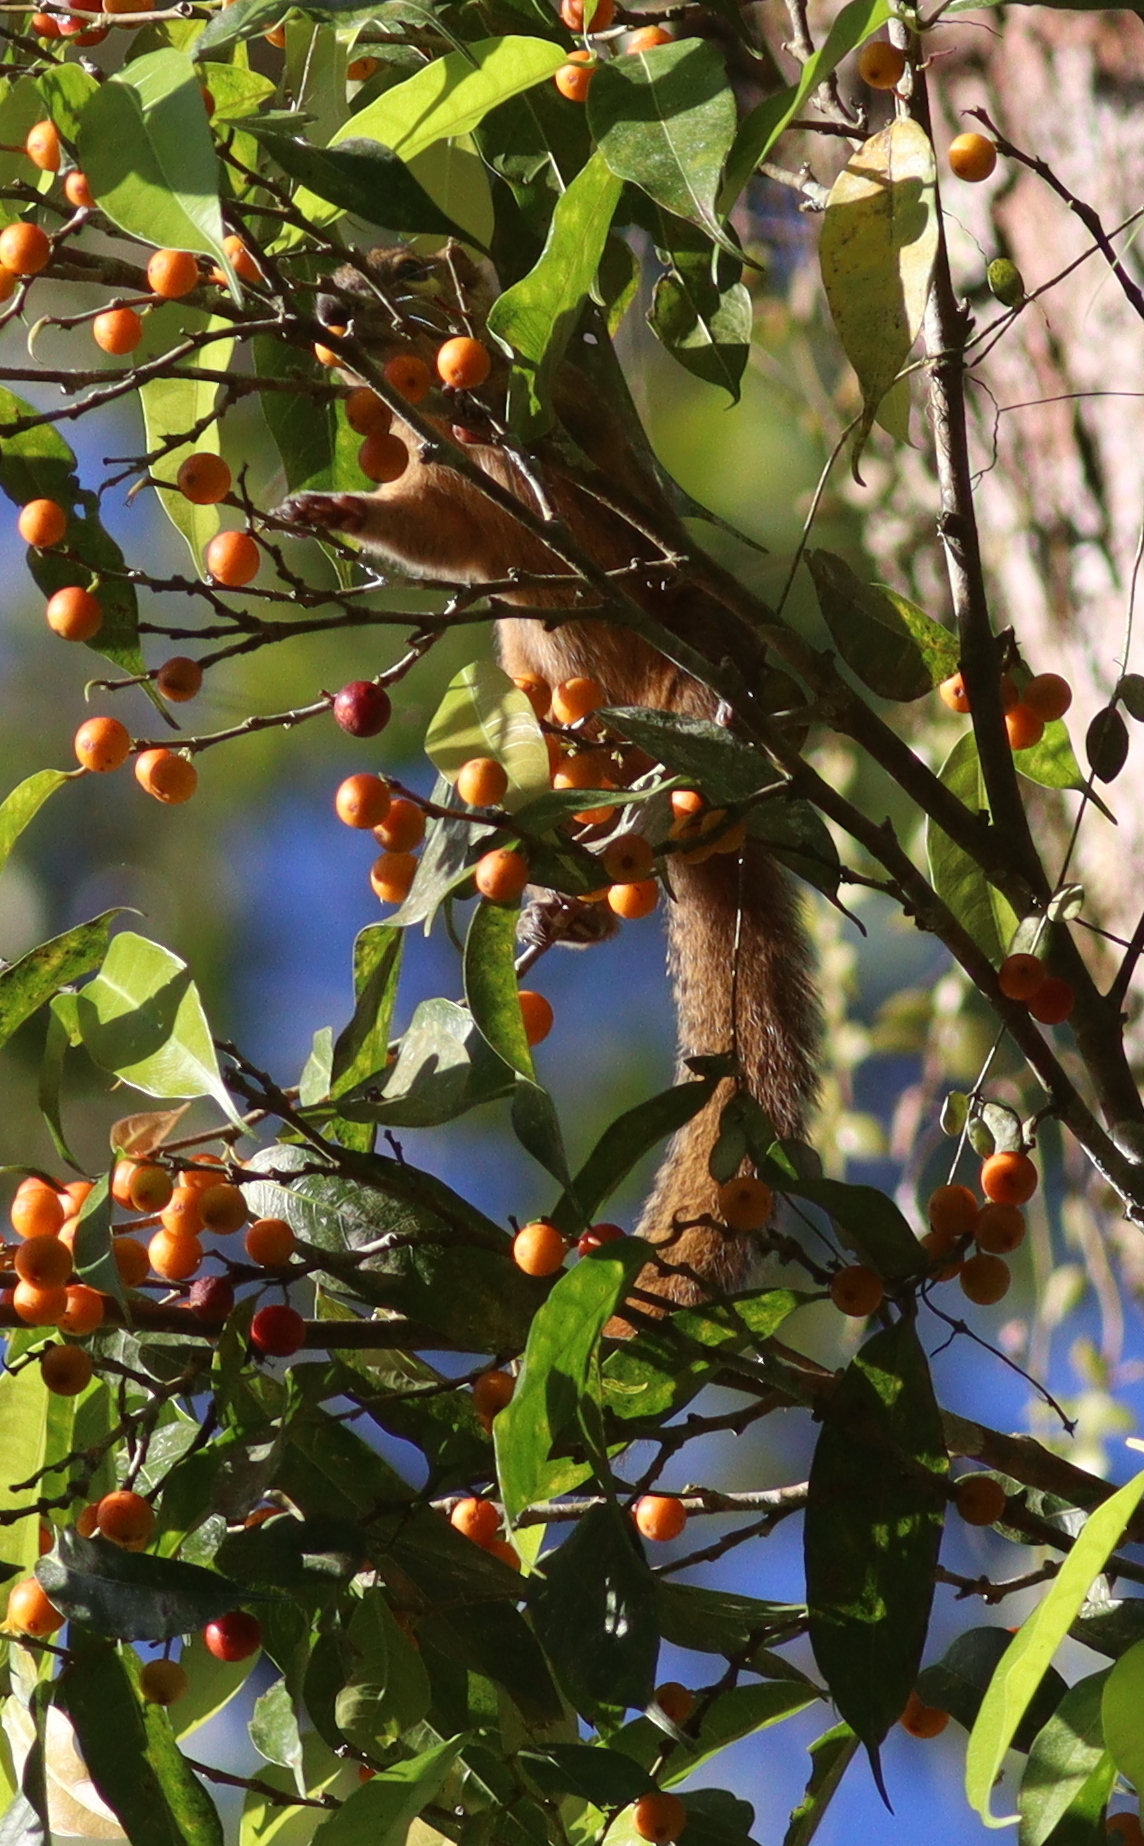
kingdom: Animalia
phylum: Chordata
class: Mammalia
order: Rodentia
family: Sciuridae
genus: Callosciurus
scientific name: Callosciurus notatus
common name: Plantain squirrel
